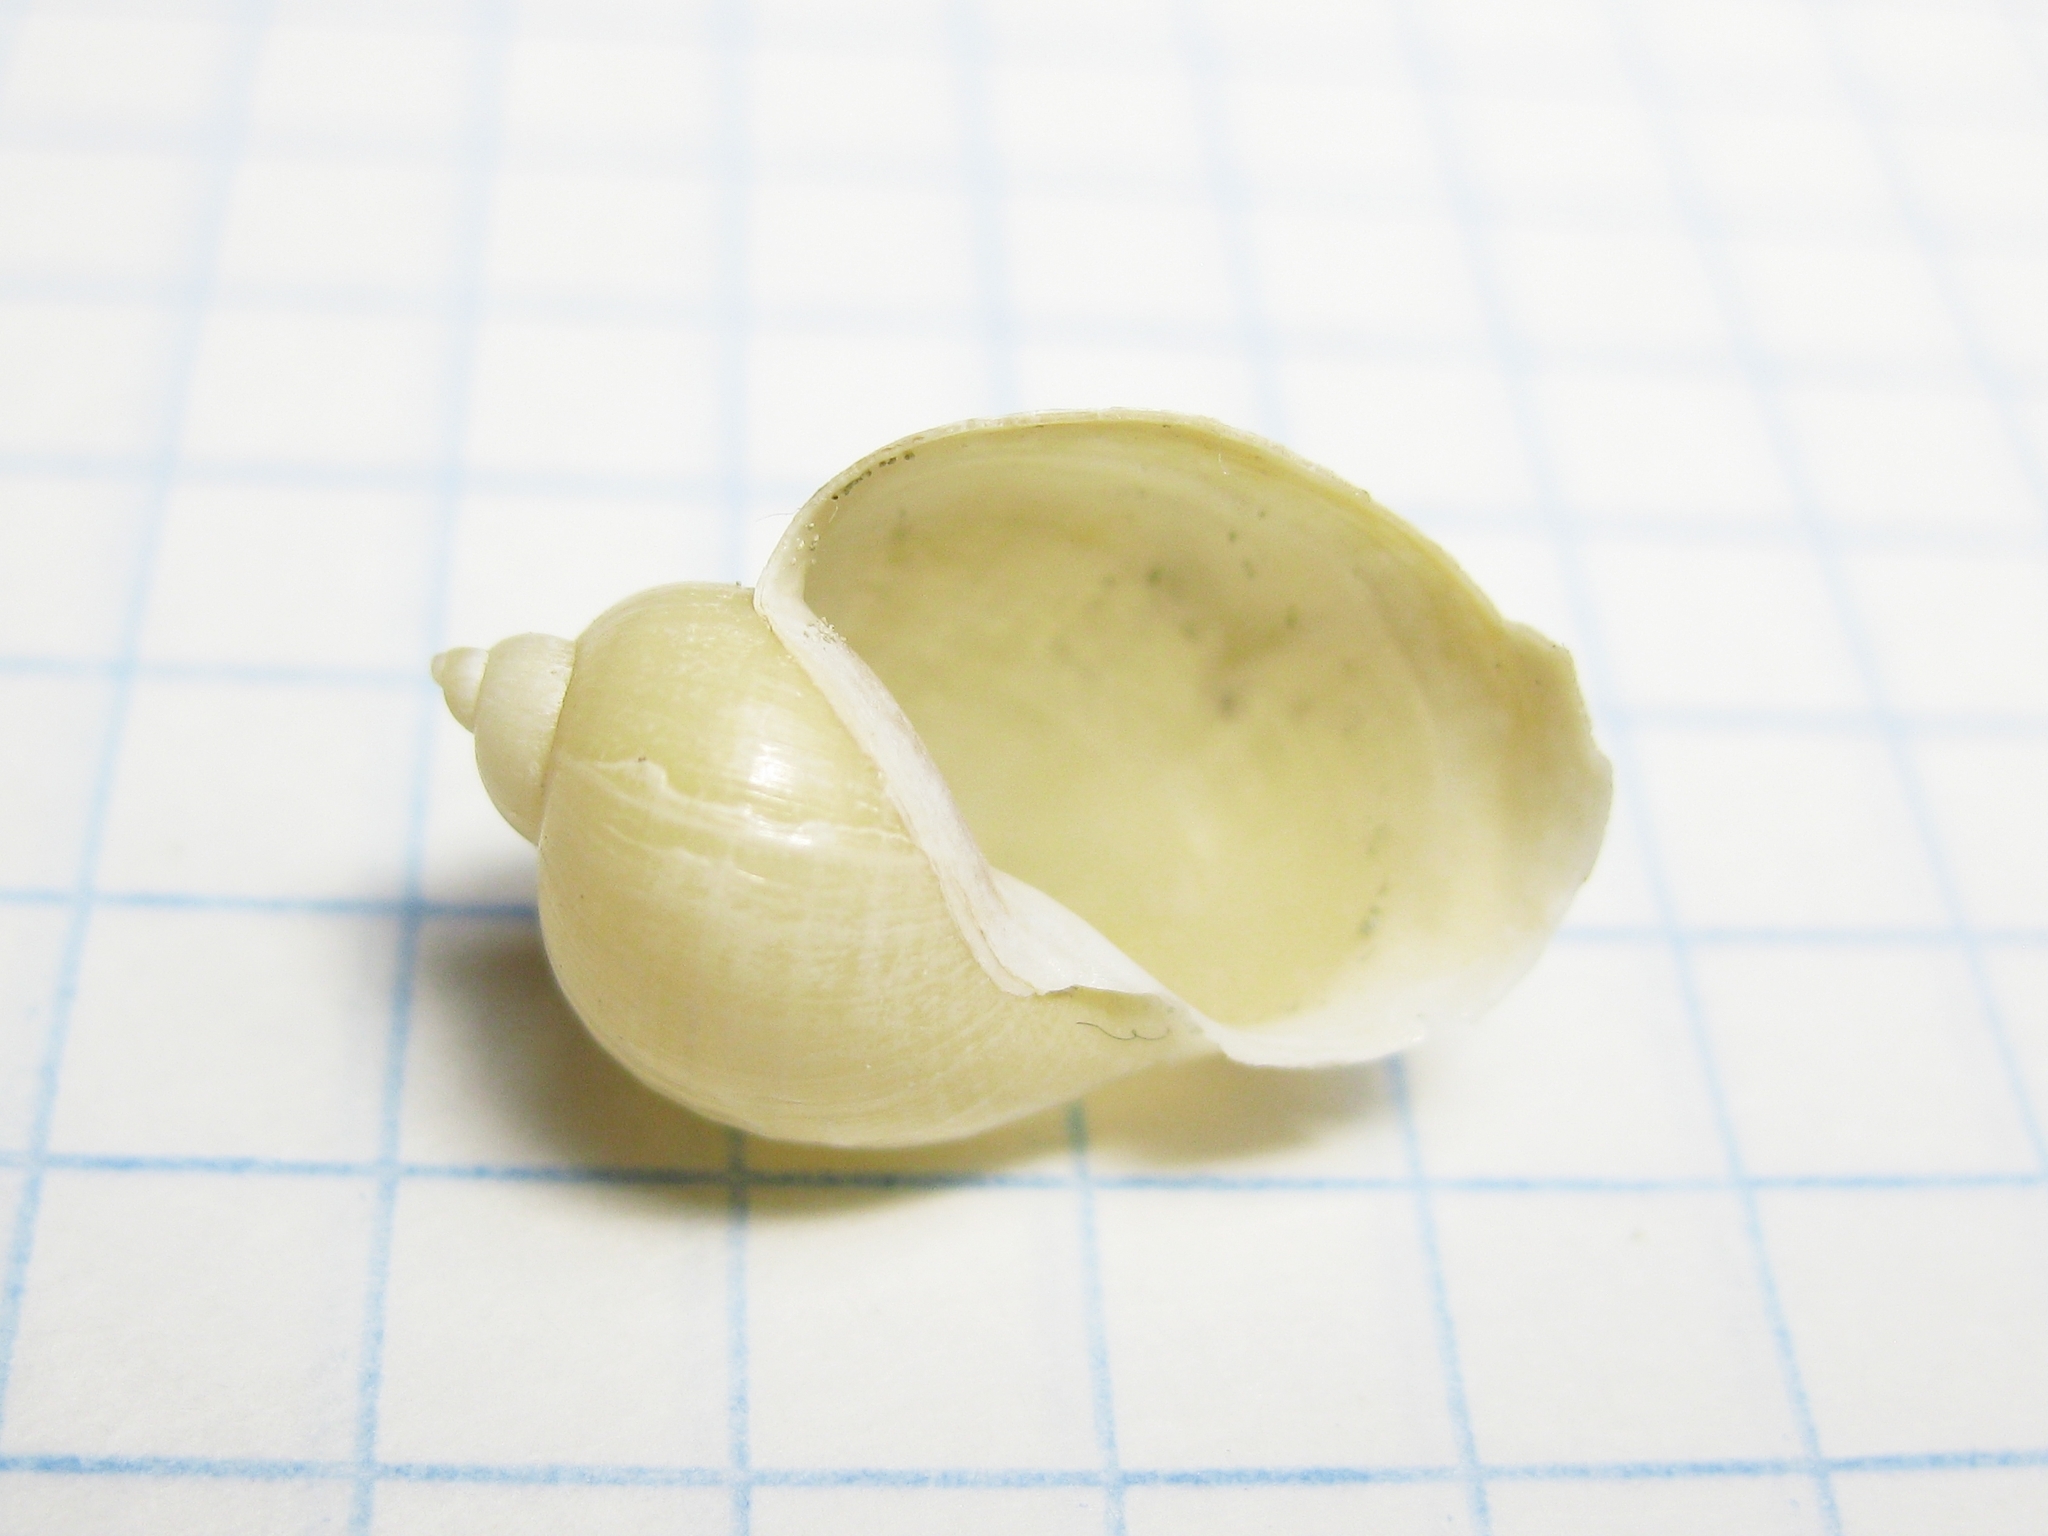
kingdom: Animalia
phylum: Mollusca
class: Gastropoda
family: Lymnaeidae
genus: Radix
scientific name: Radix auricularia
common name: Ear pond snail
